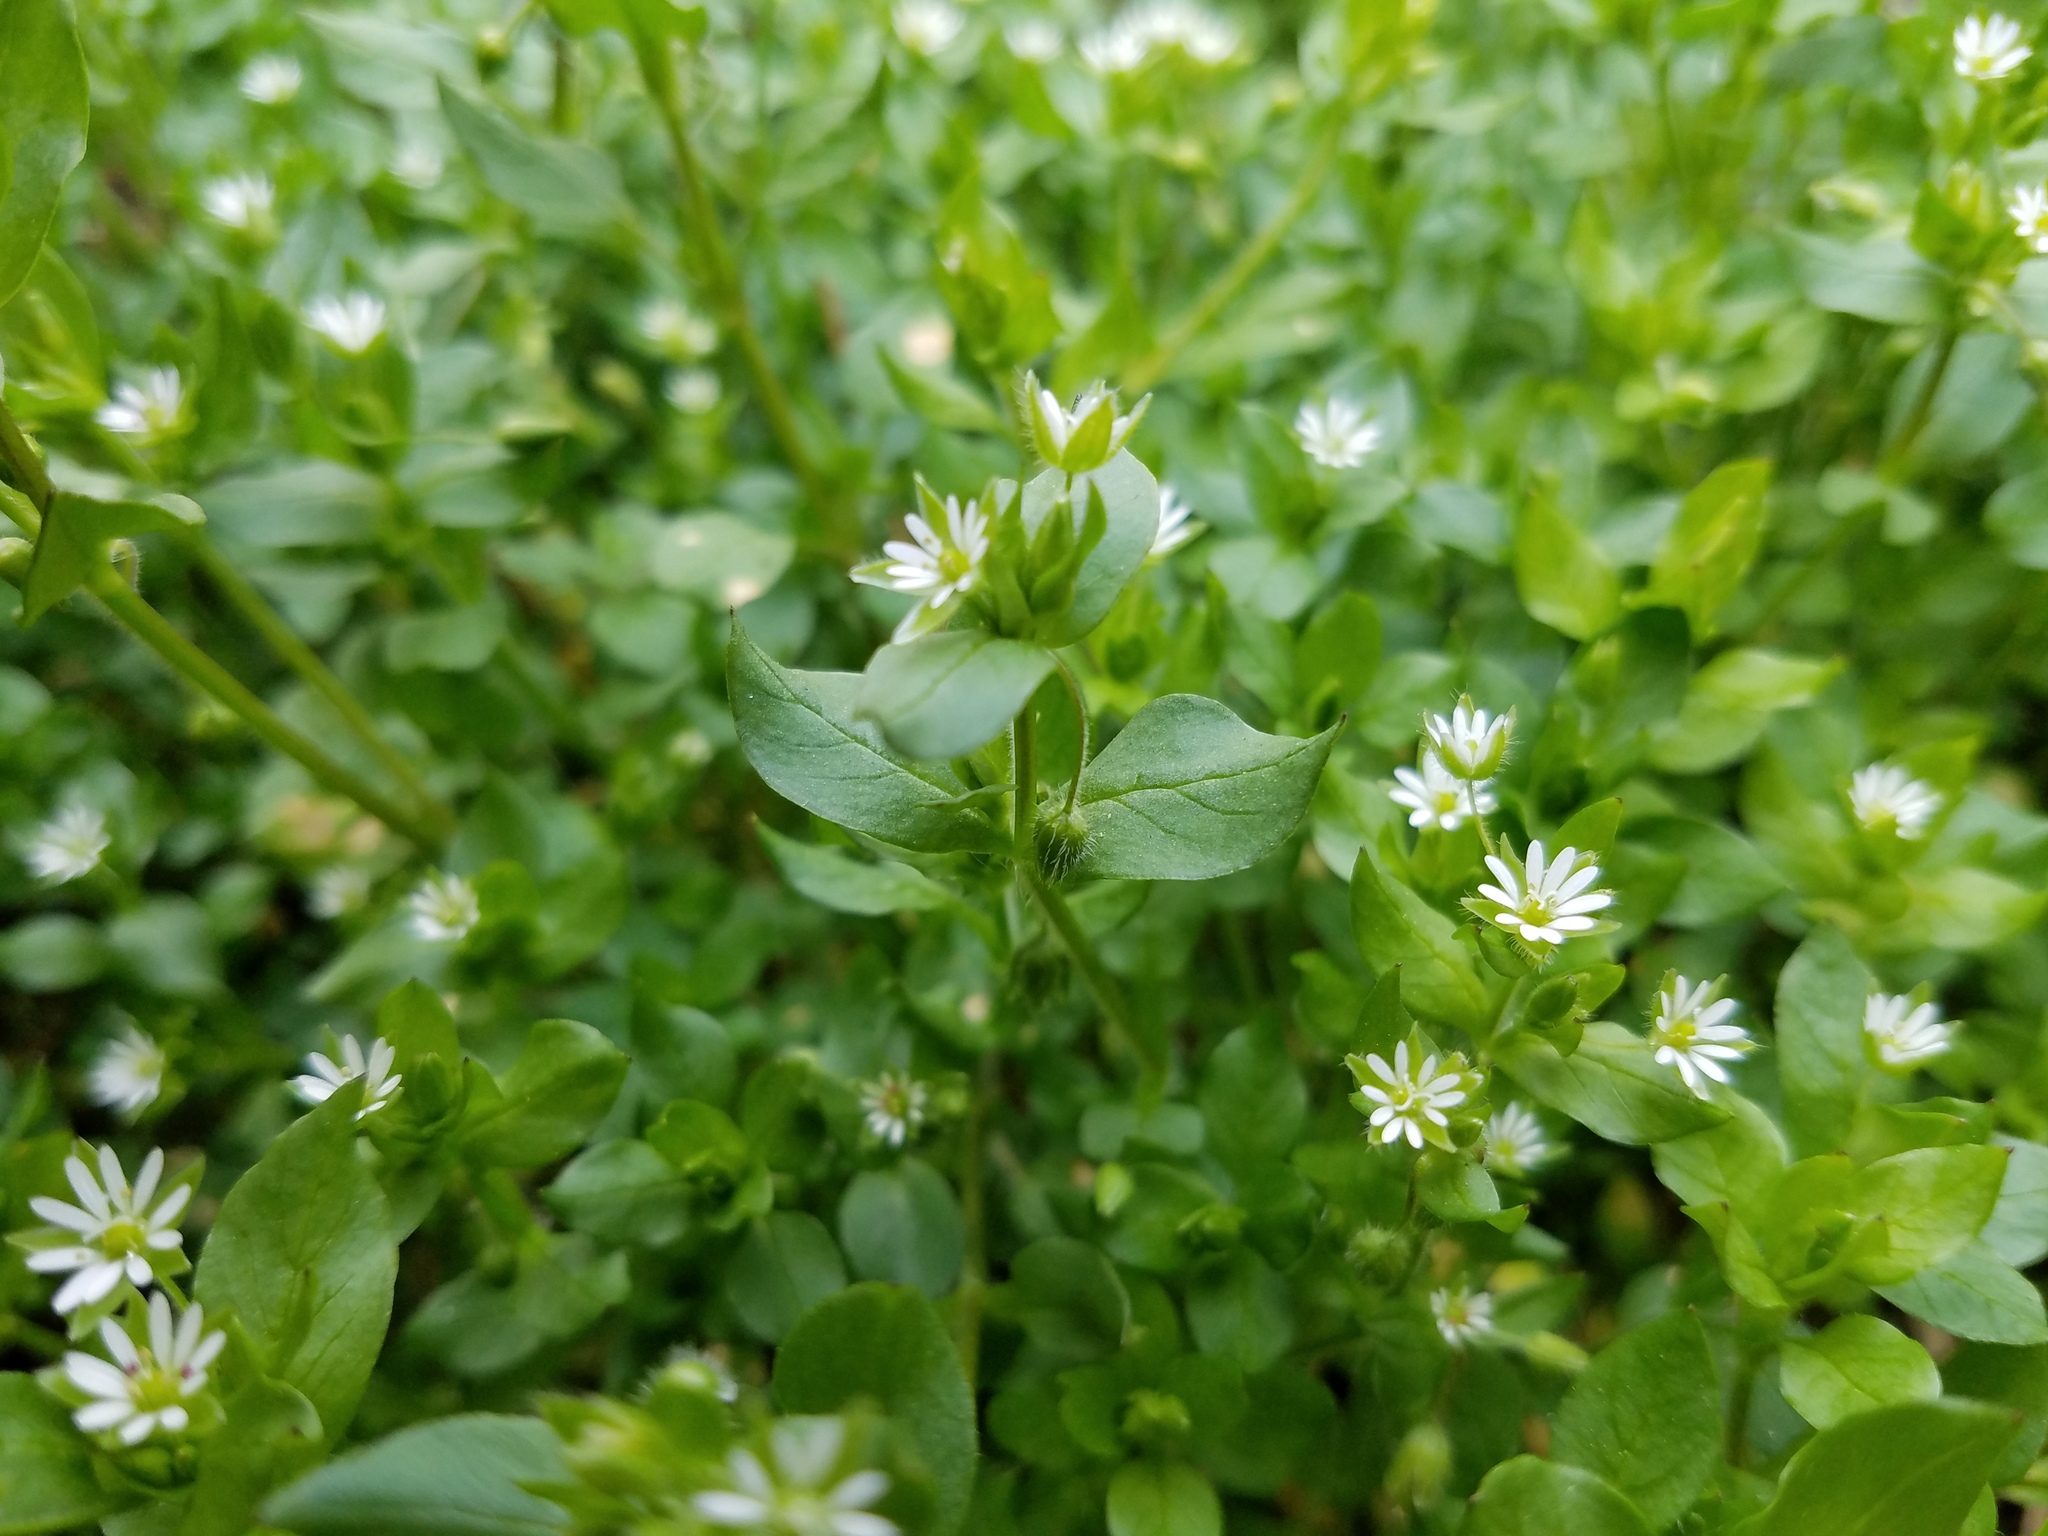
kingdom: Plantae
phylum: Tracheophyta
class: Magnoliopsida
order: Caryophyllales
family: Caryophyllaceae
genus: Stellaria
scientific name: Stellaria media
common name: Common chickweed
